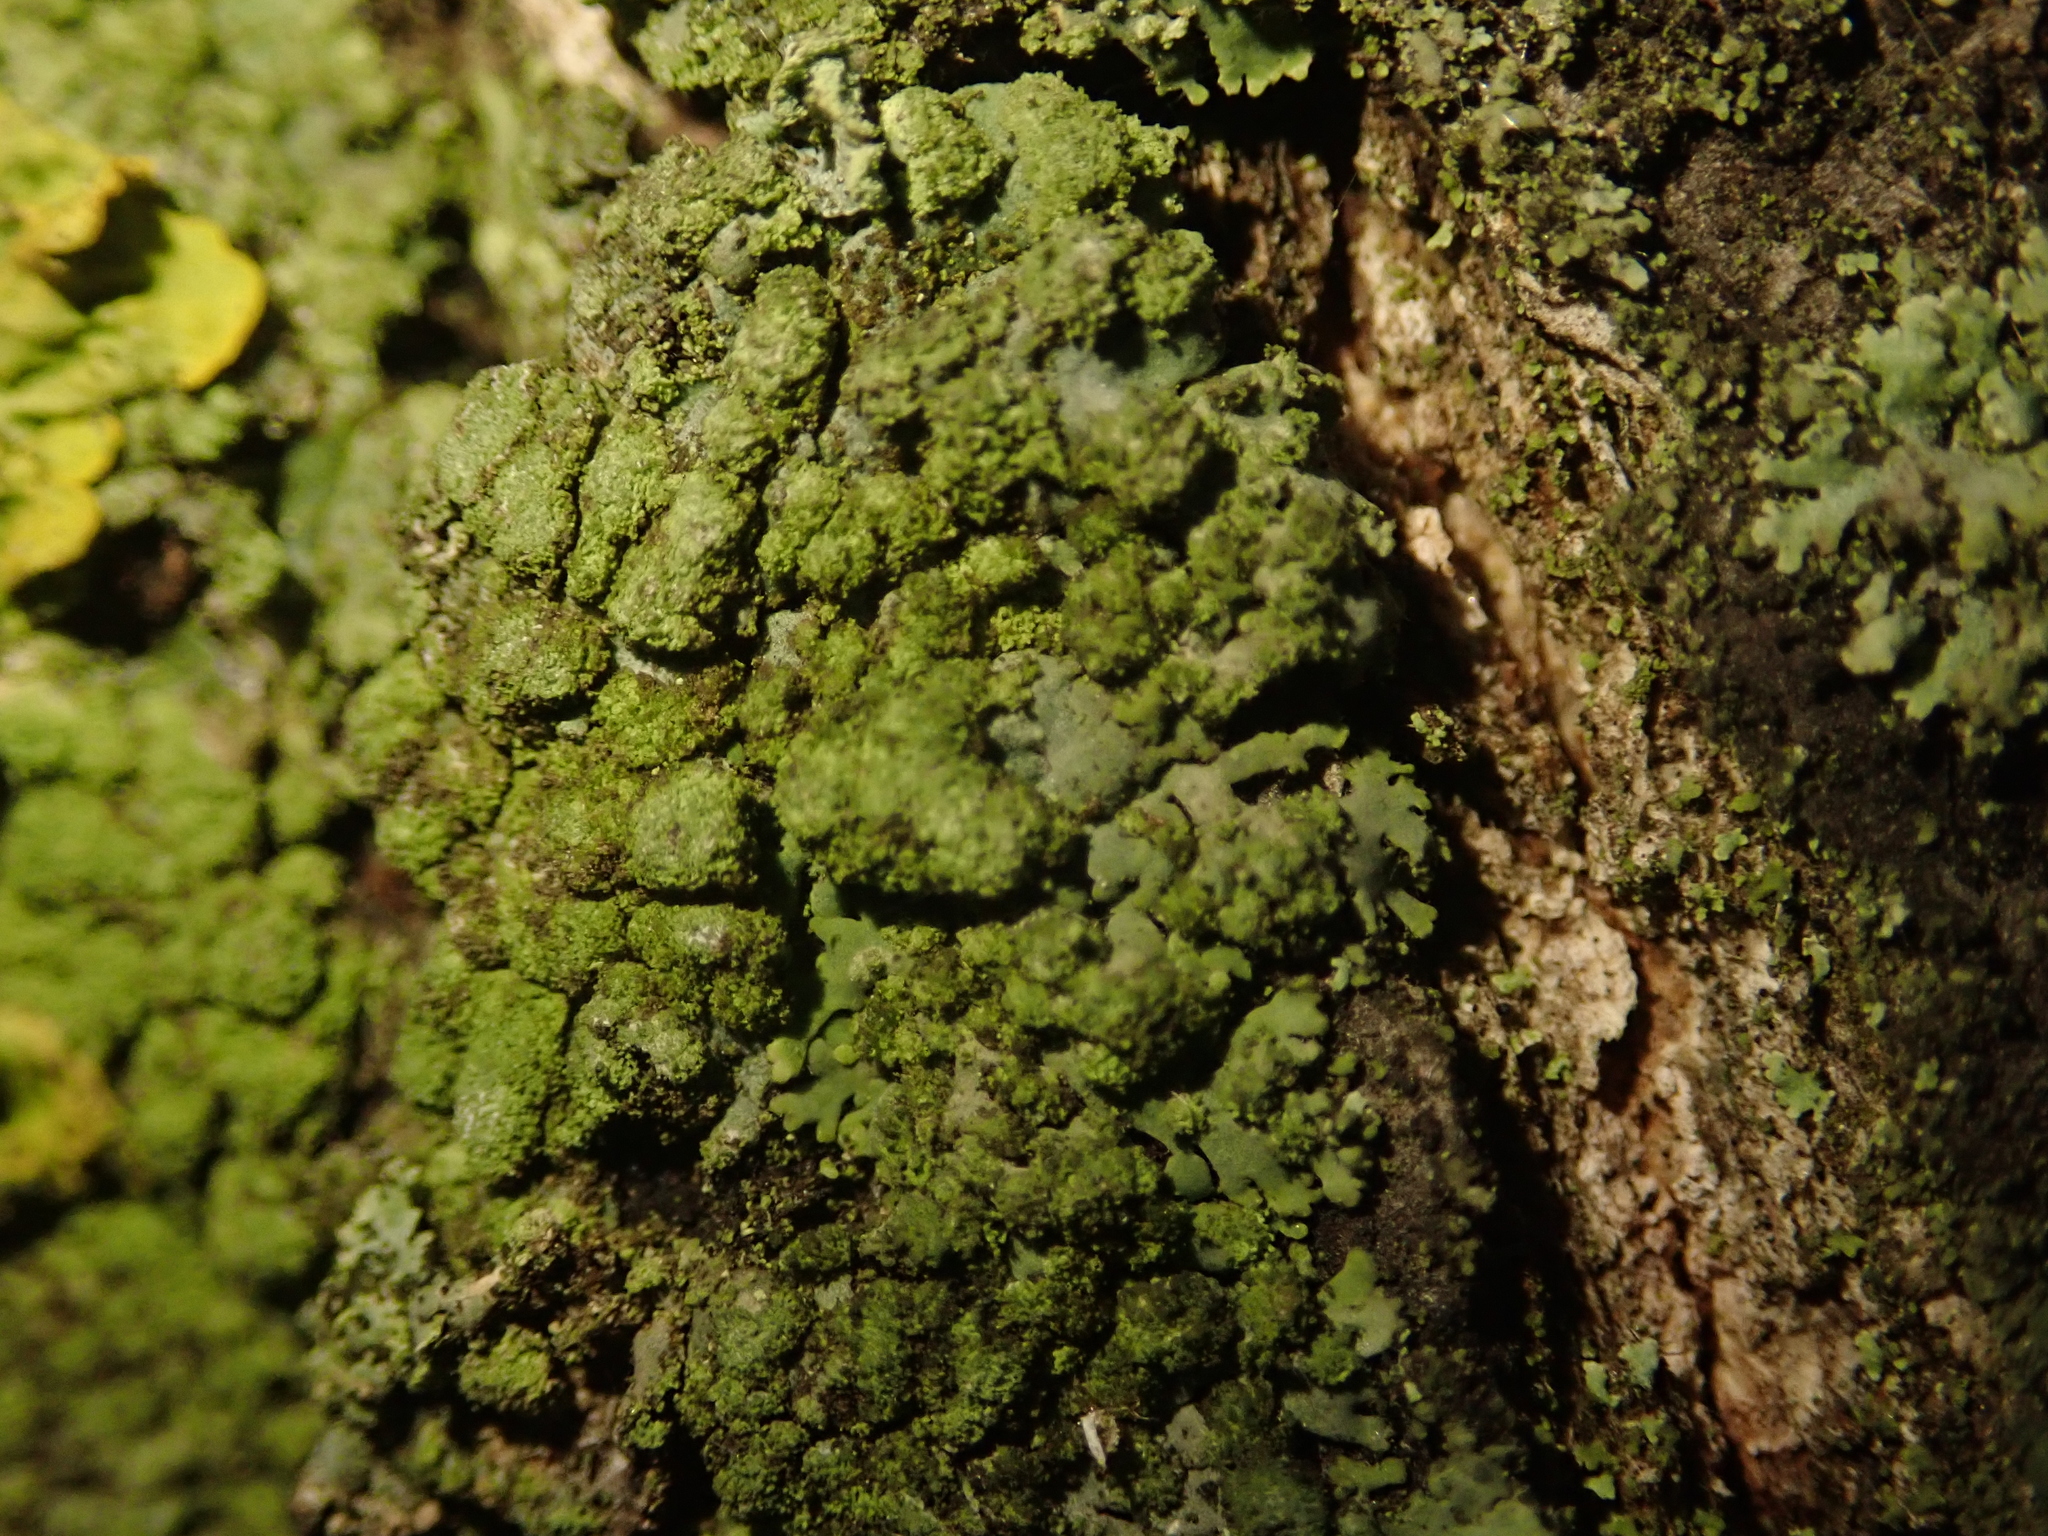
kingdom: Fungi
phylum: Ascomycota
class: Lecanoromycetes
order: Caliciales
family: Physciaceae
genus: Phaeophyscia
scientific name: Phaeophyscia orbicularis
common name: Mealy shadow lichen
